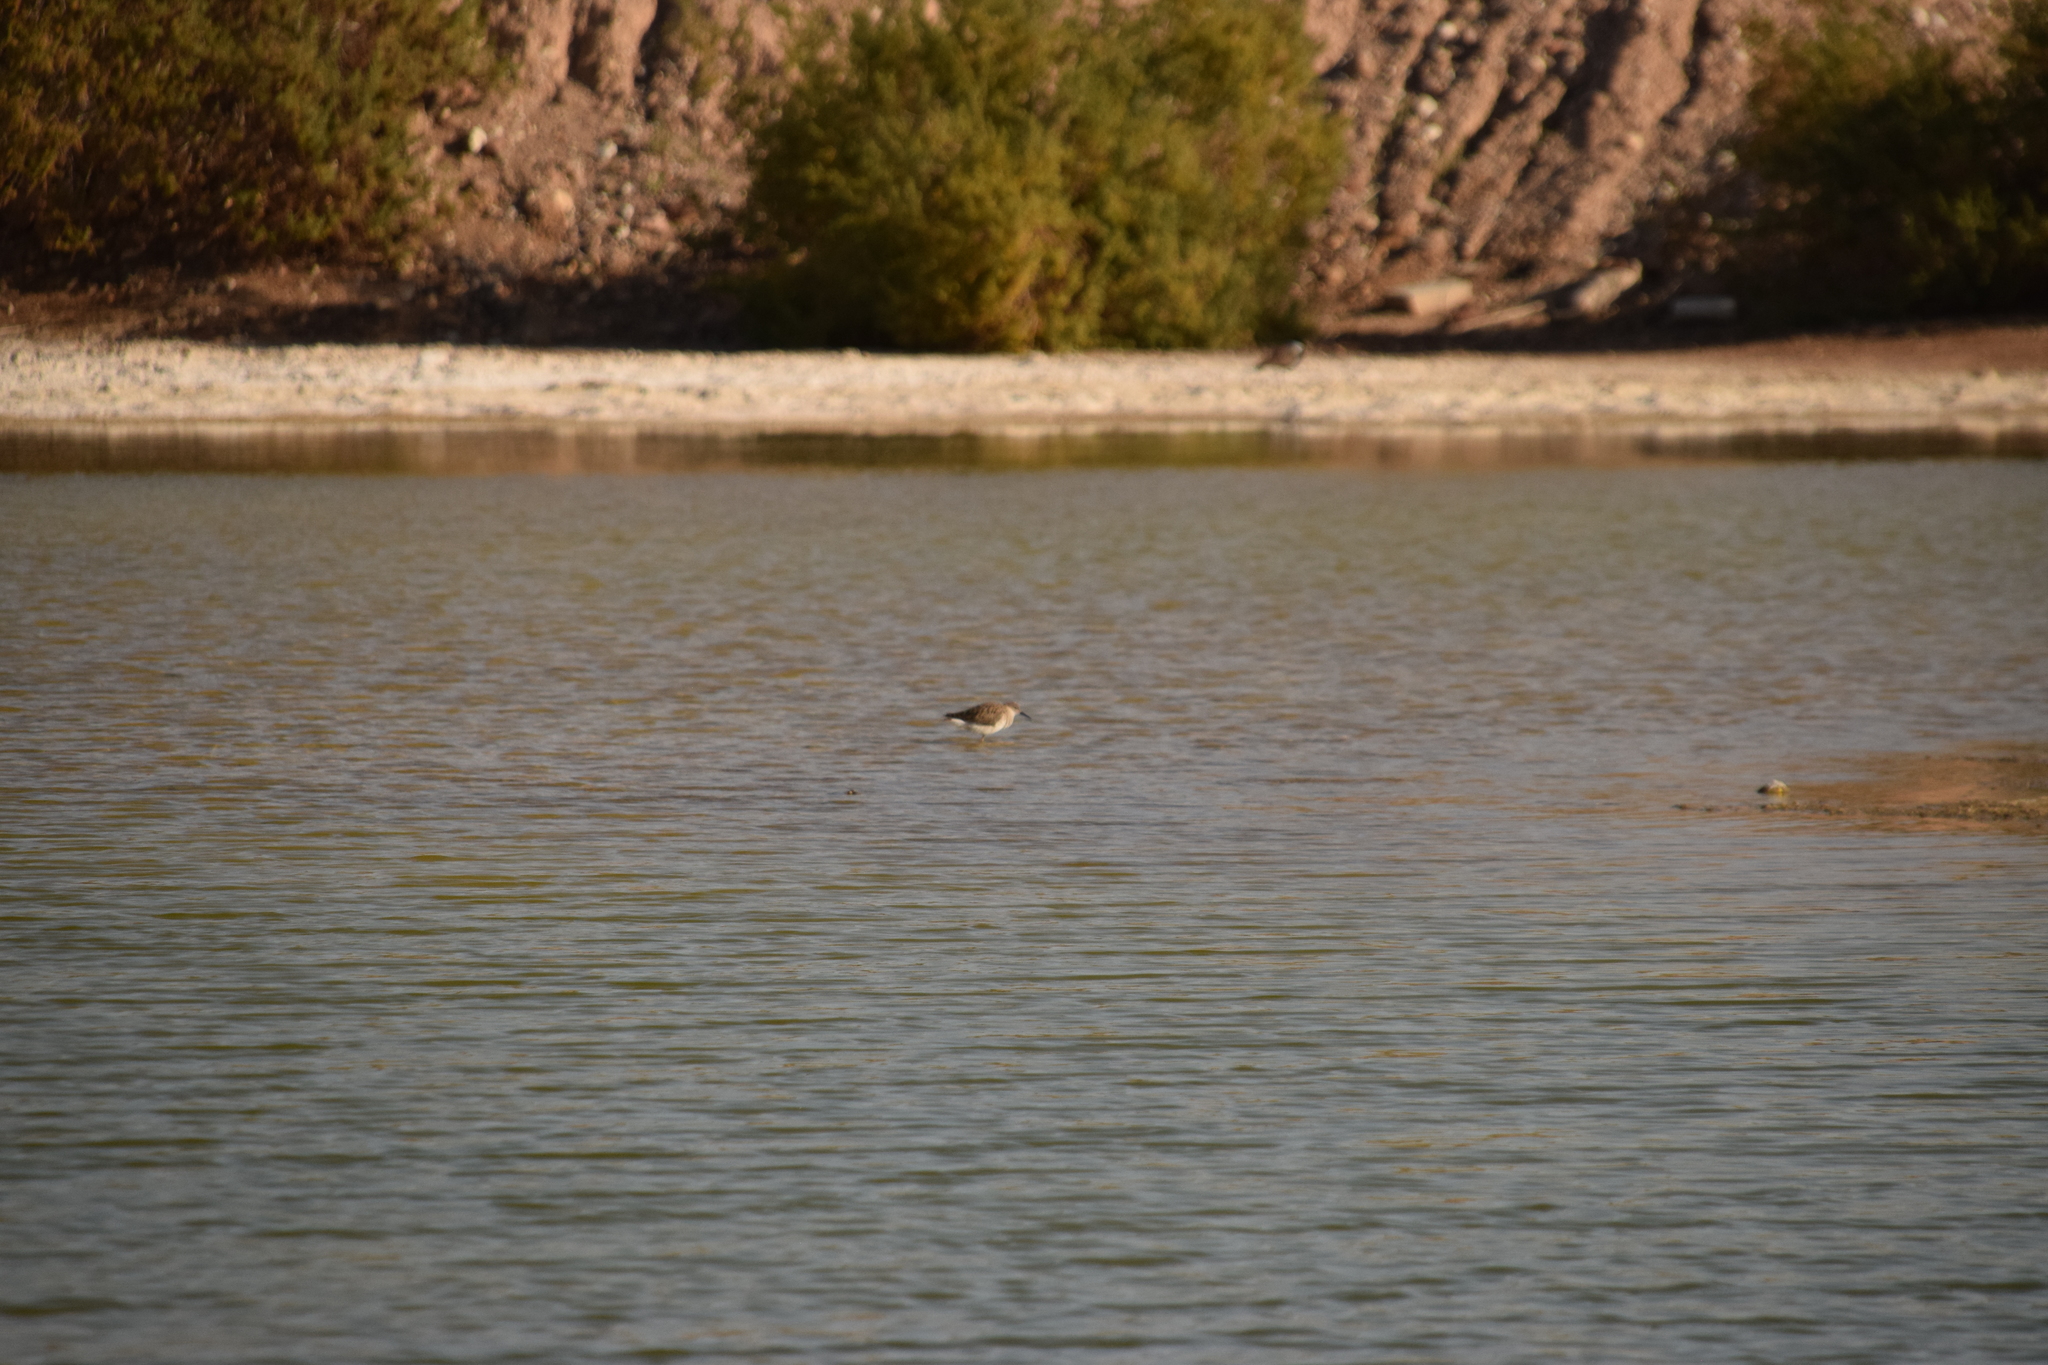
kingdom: Animalia
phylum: Chordata
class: Aves
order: Charadriiformes
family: Scolopacidae
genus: Calidris
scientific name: Calidris pugnax
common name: Ruff
